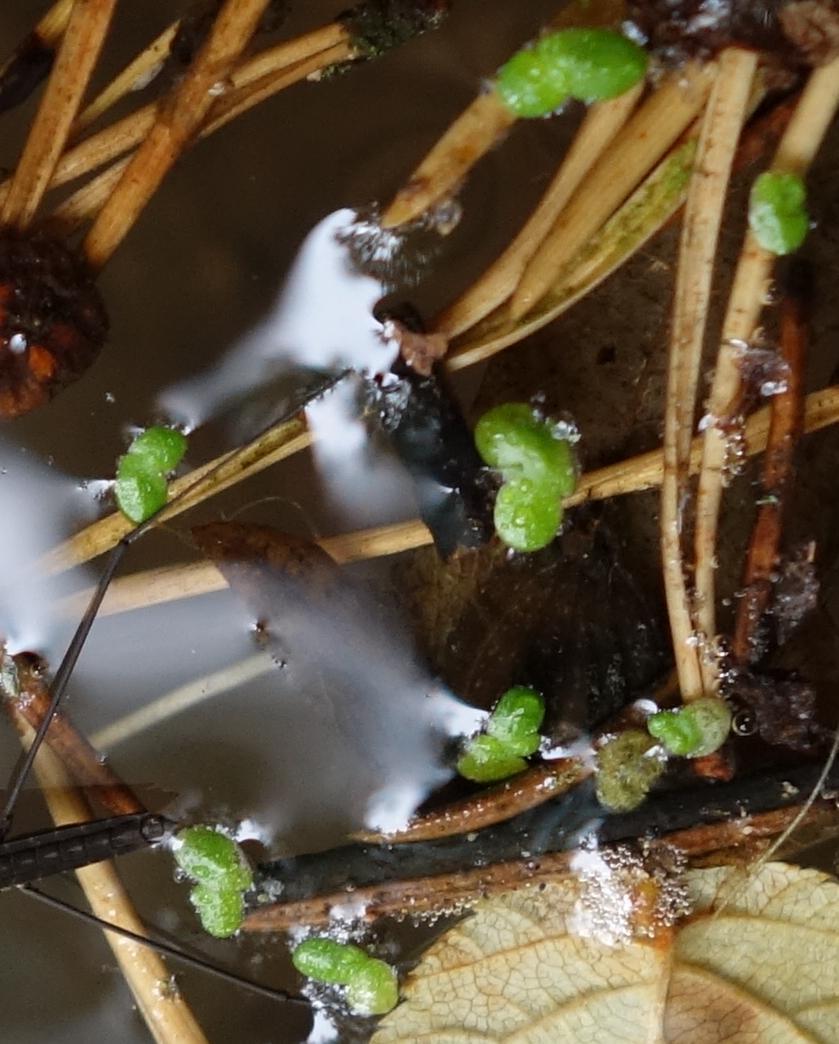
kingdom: Plantae
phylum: Tracheophyta
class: Liliopsida
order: Alismatales
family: Araceae
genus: Lemna
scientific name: Lemna minor
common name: Common duckweed
